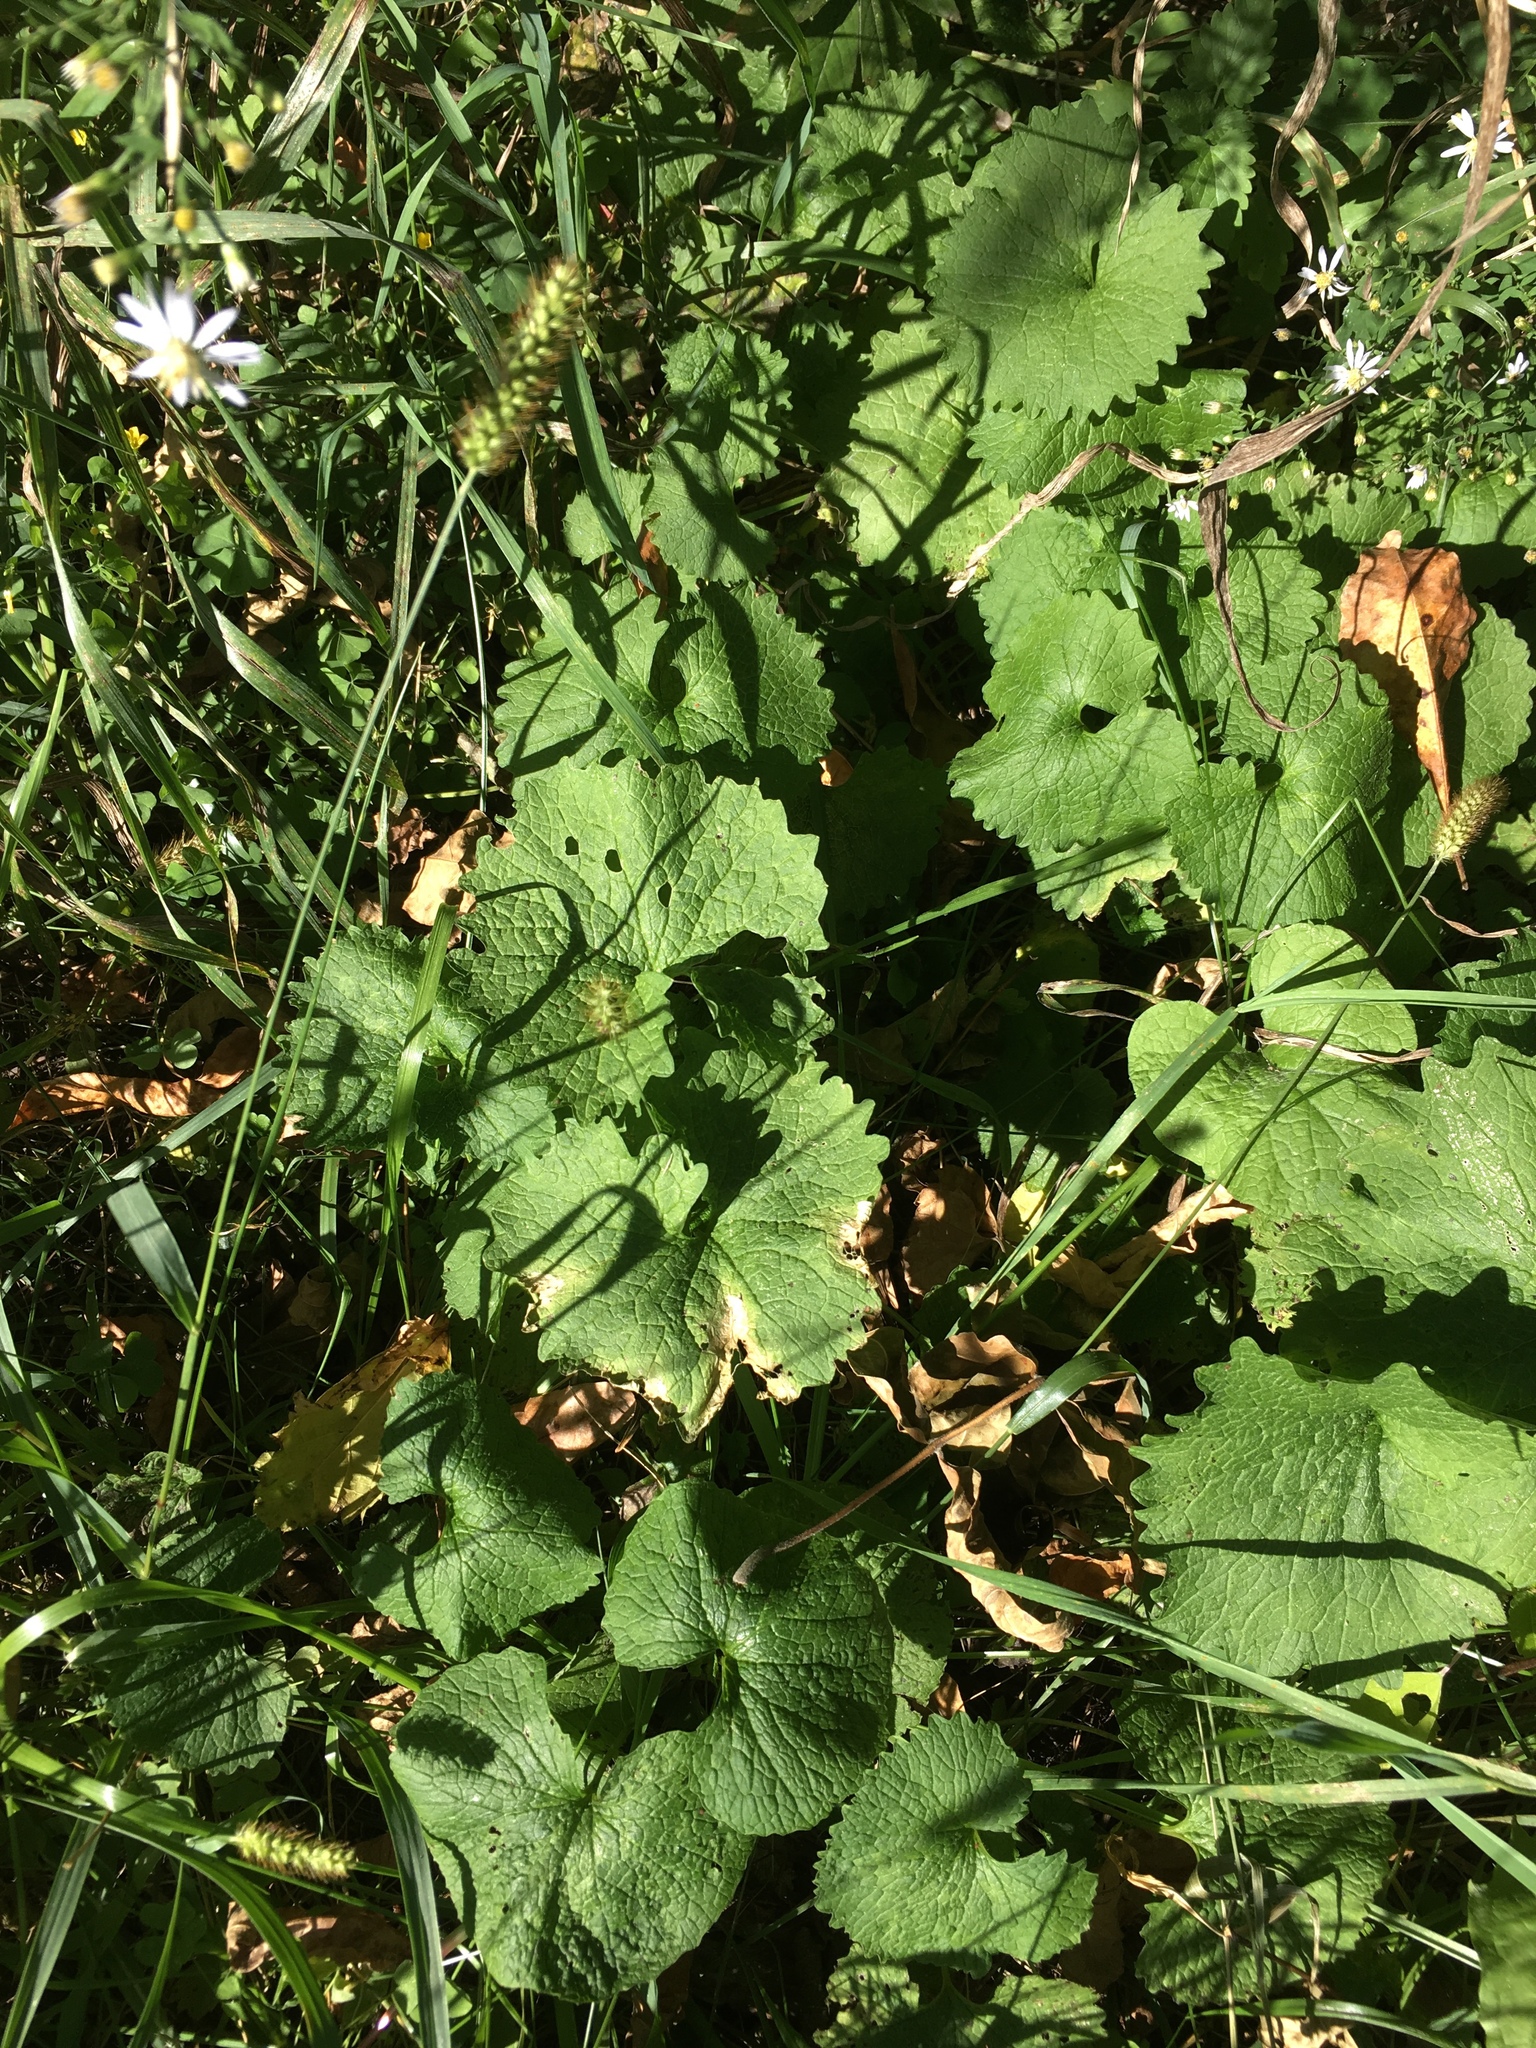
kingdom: Plantae
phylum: Tracheophyta
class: Magnoliopsida
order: Brassicales
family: Brassicaceae
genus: Alliaria
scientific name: Alliaria petiolata
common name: Garlic mustard
